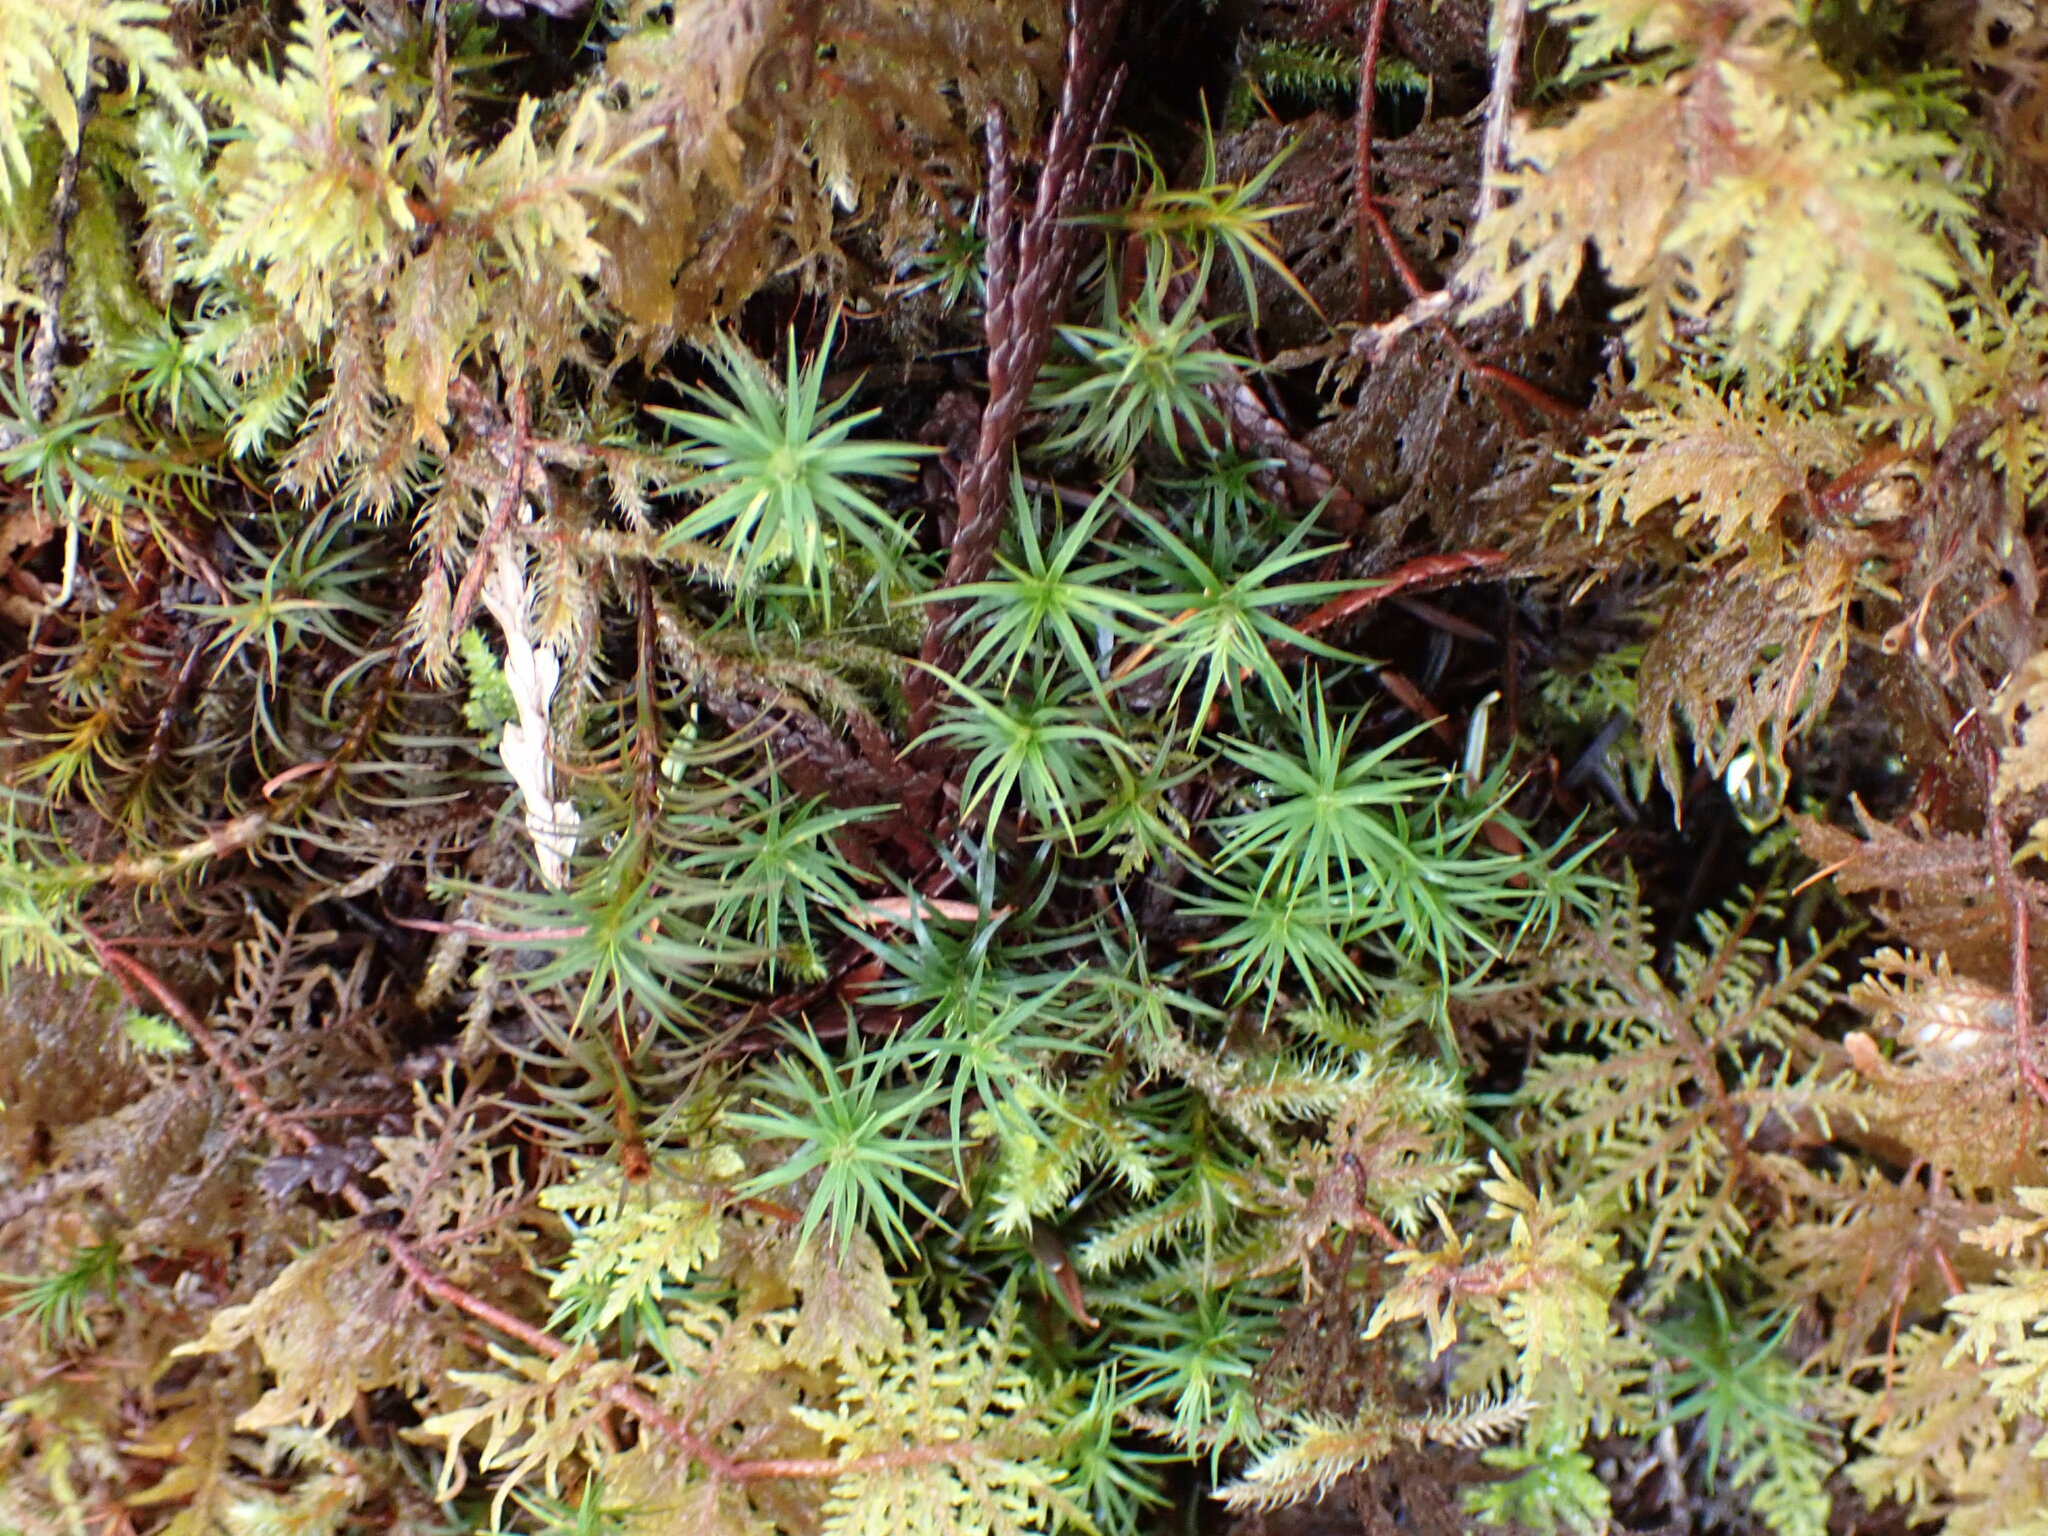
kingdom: Plantae
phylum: Bryophyta
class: Polytrichopsida
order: Polytrichales
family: Polytrichaceae
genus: Polytrichastrum
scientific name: Polytrichastrum alpinum
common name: Alpine haircap
